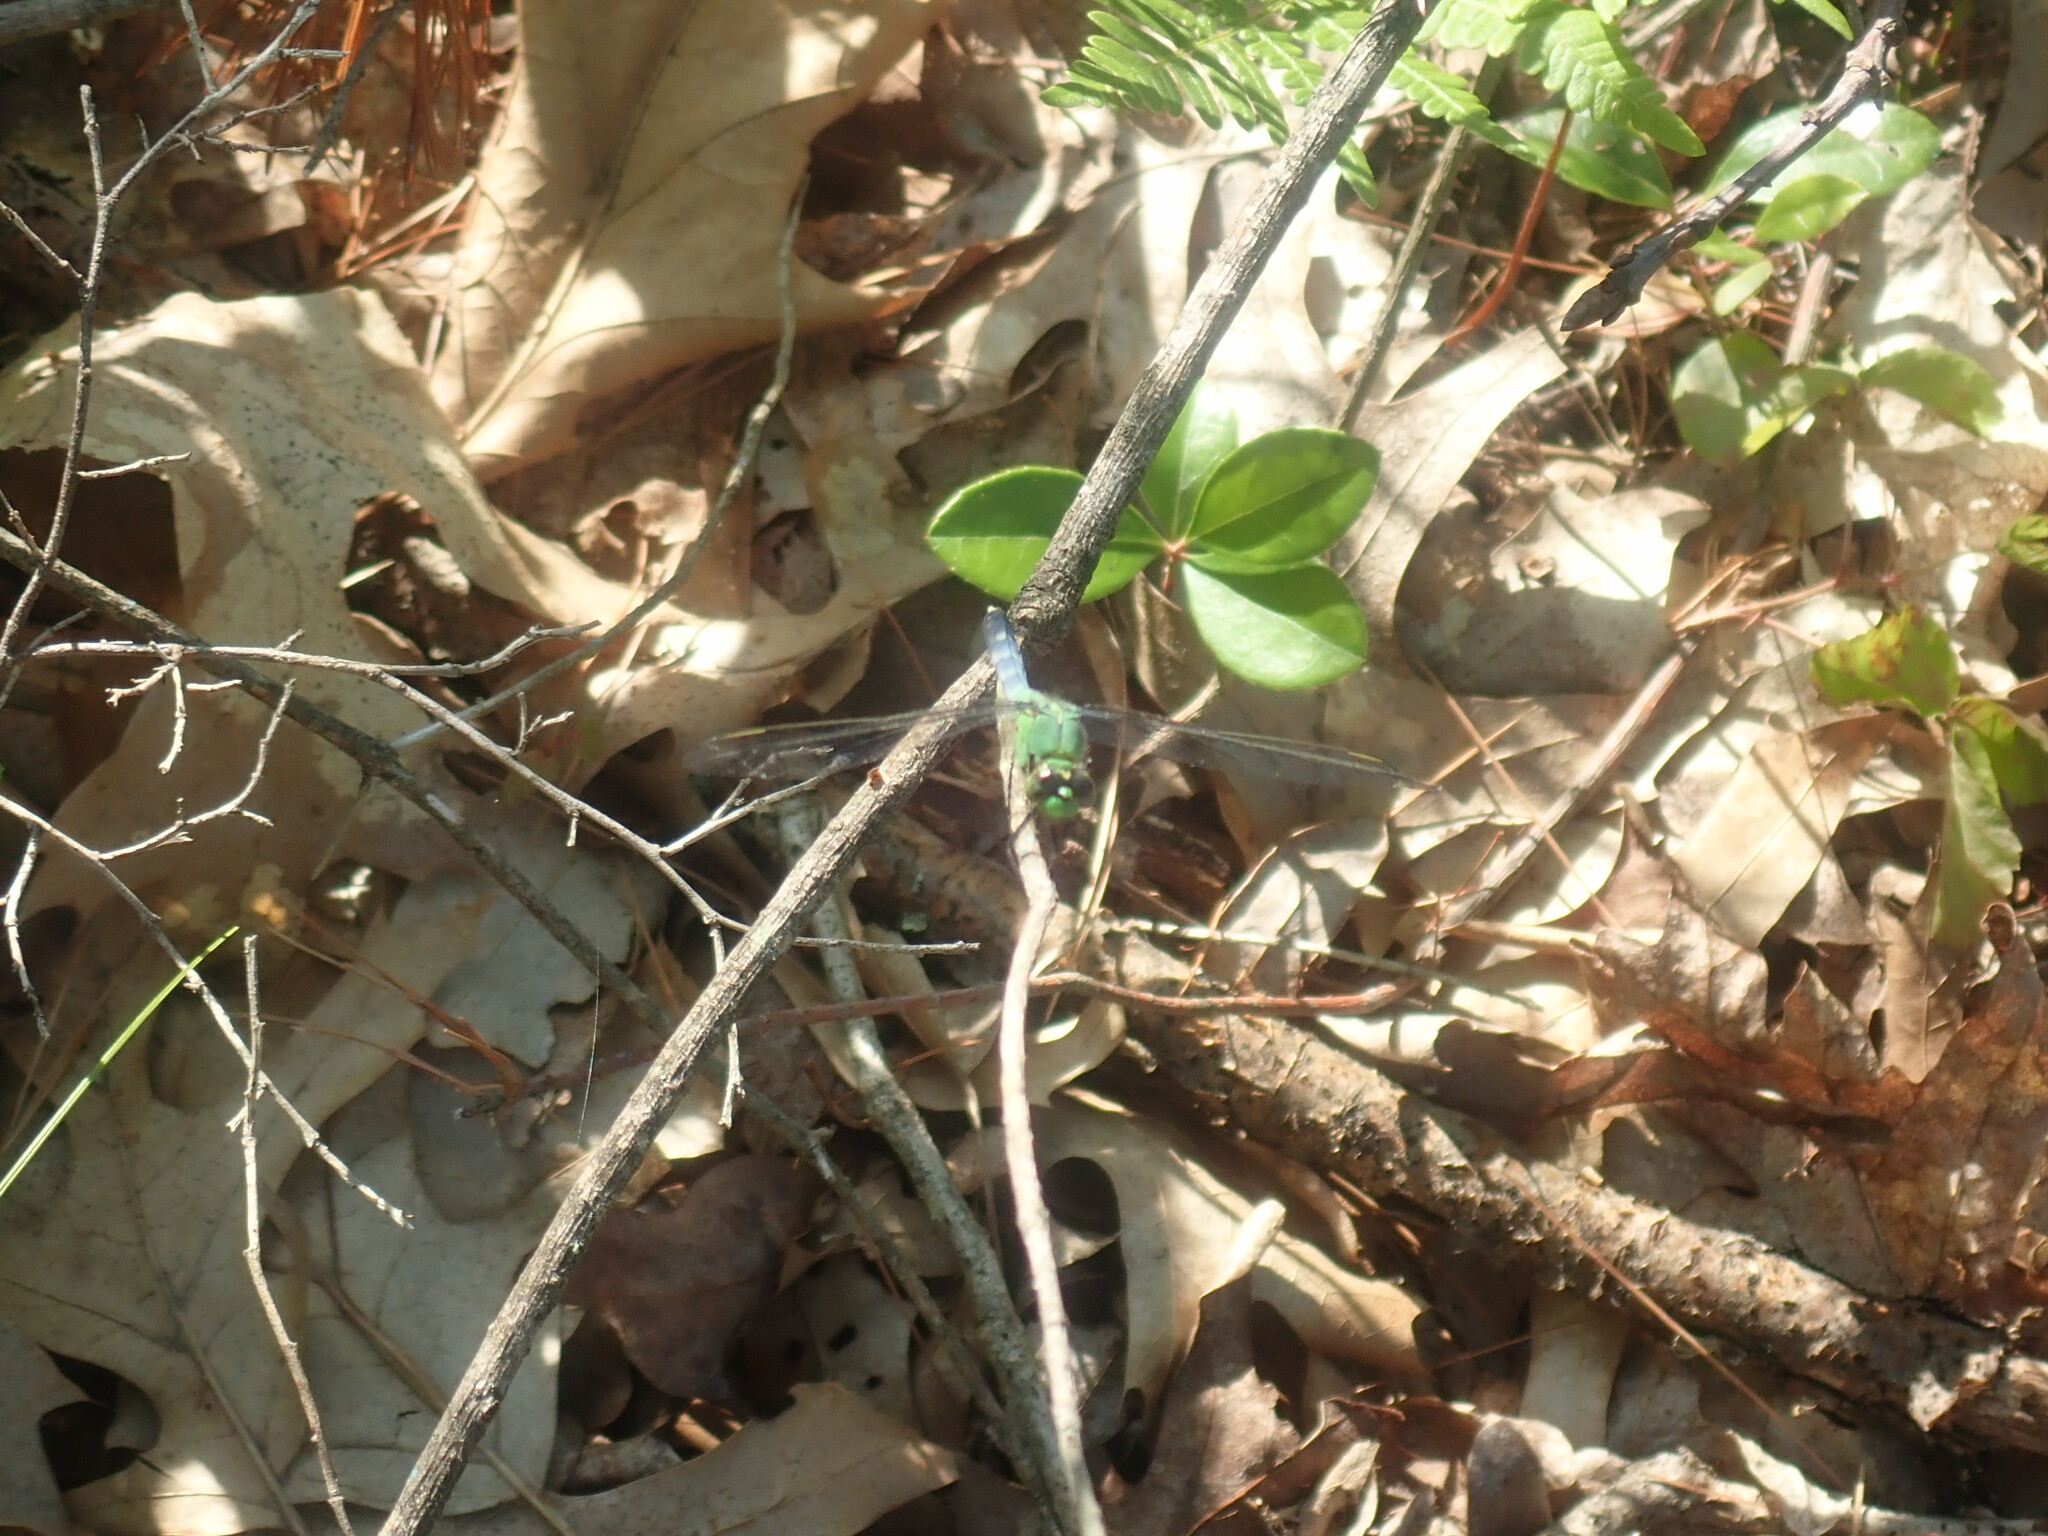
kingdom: Animalia
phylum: Arthropoda
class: Insecta
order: Odonata
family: Libellulidae
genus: Erythemis
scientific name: Erythemis simplicicollis
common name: Eastern pondhawk
